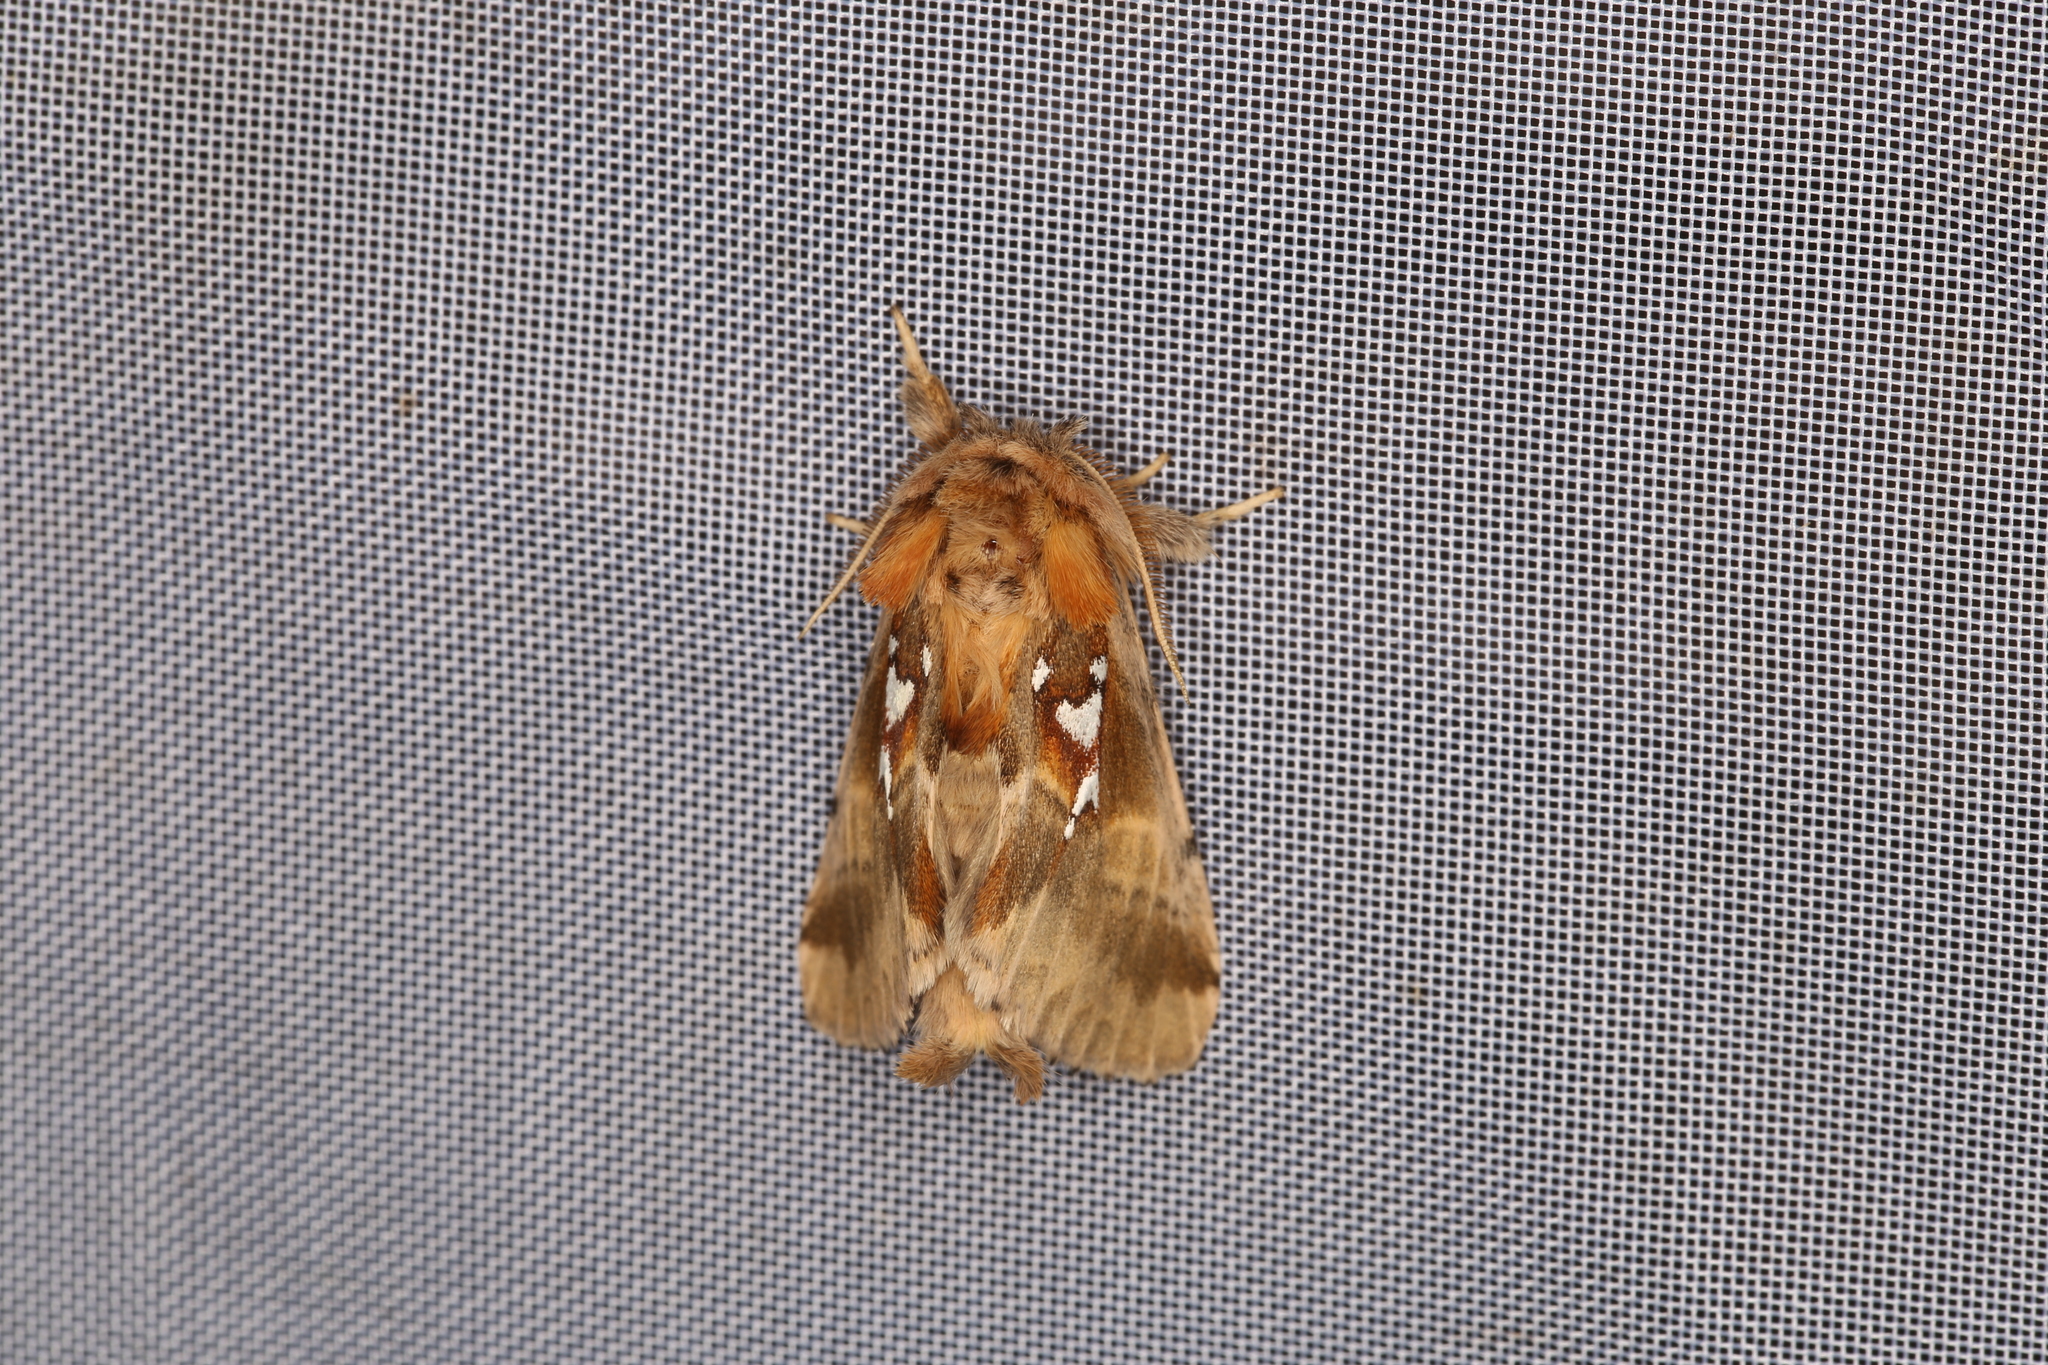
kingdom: Animalia
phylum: Arthropoda
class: Insecta
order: Lepidoptera
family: Notodontidae
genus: Spatalia
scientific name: Spatalia argentina
